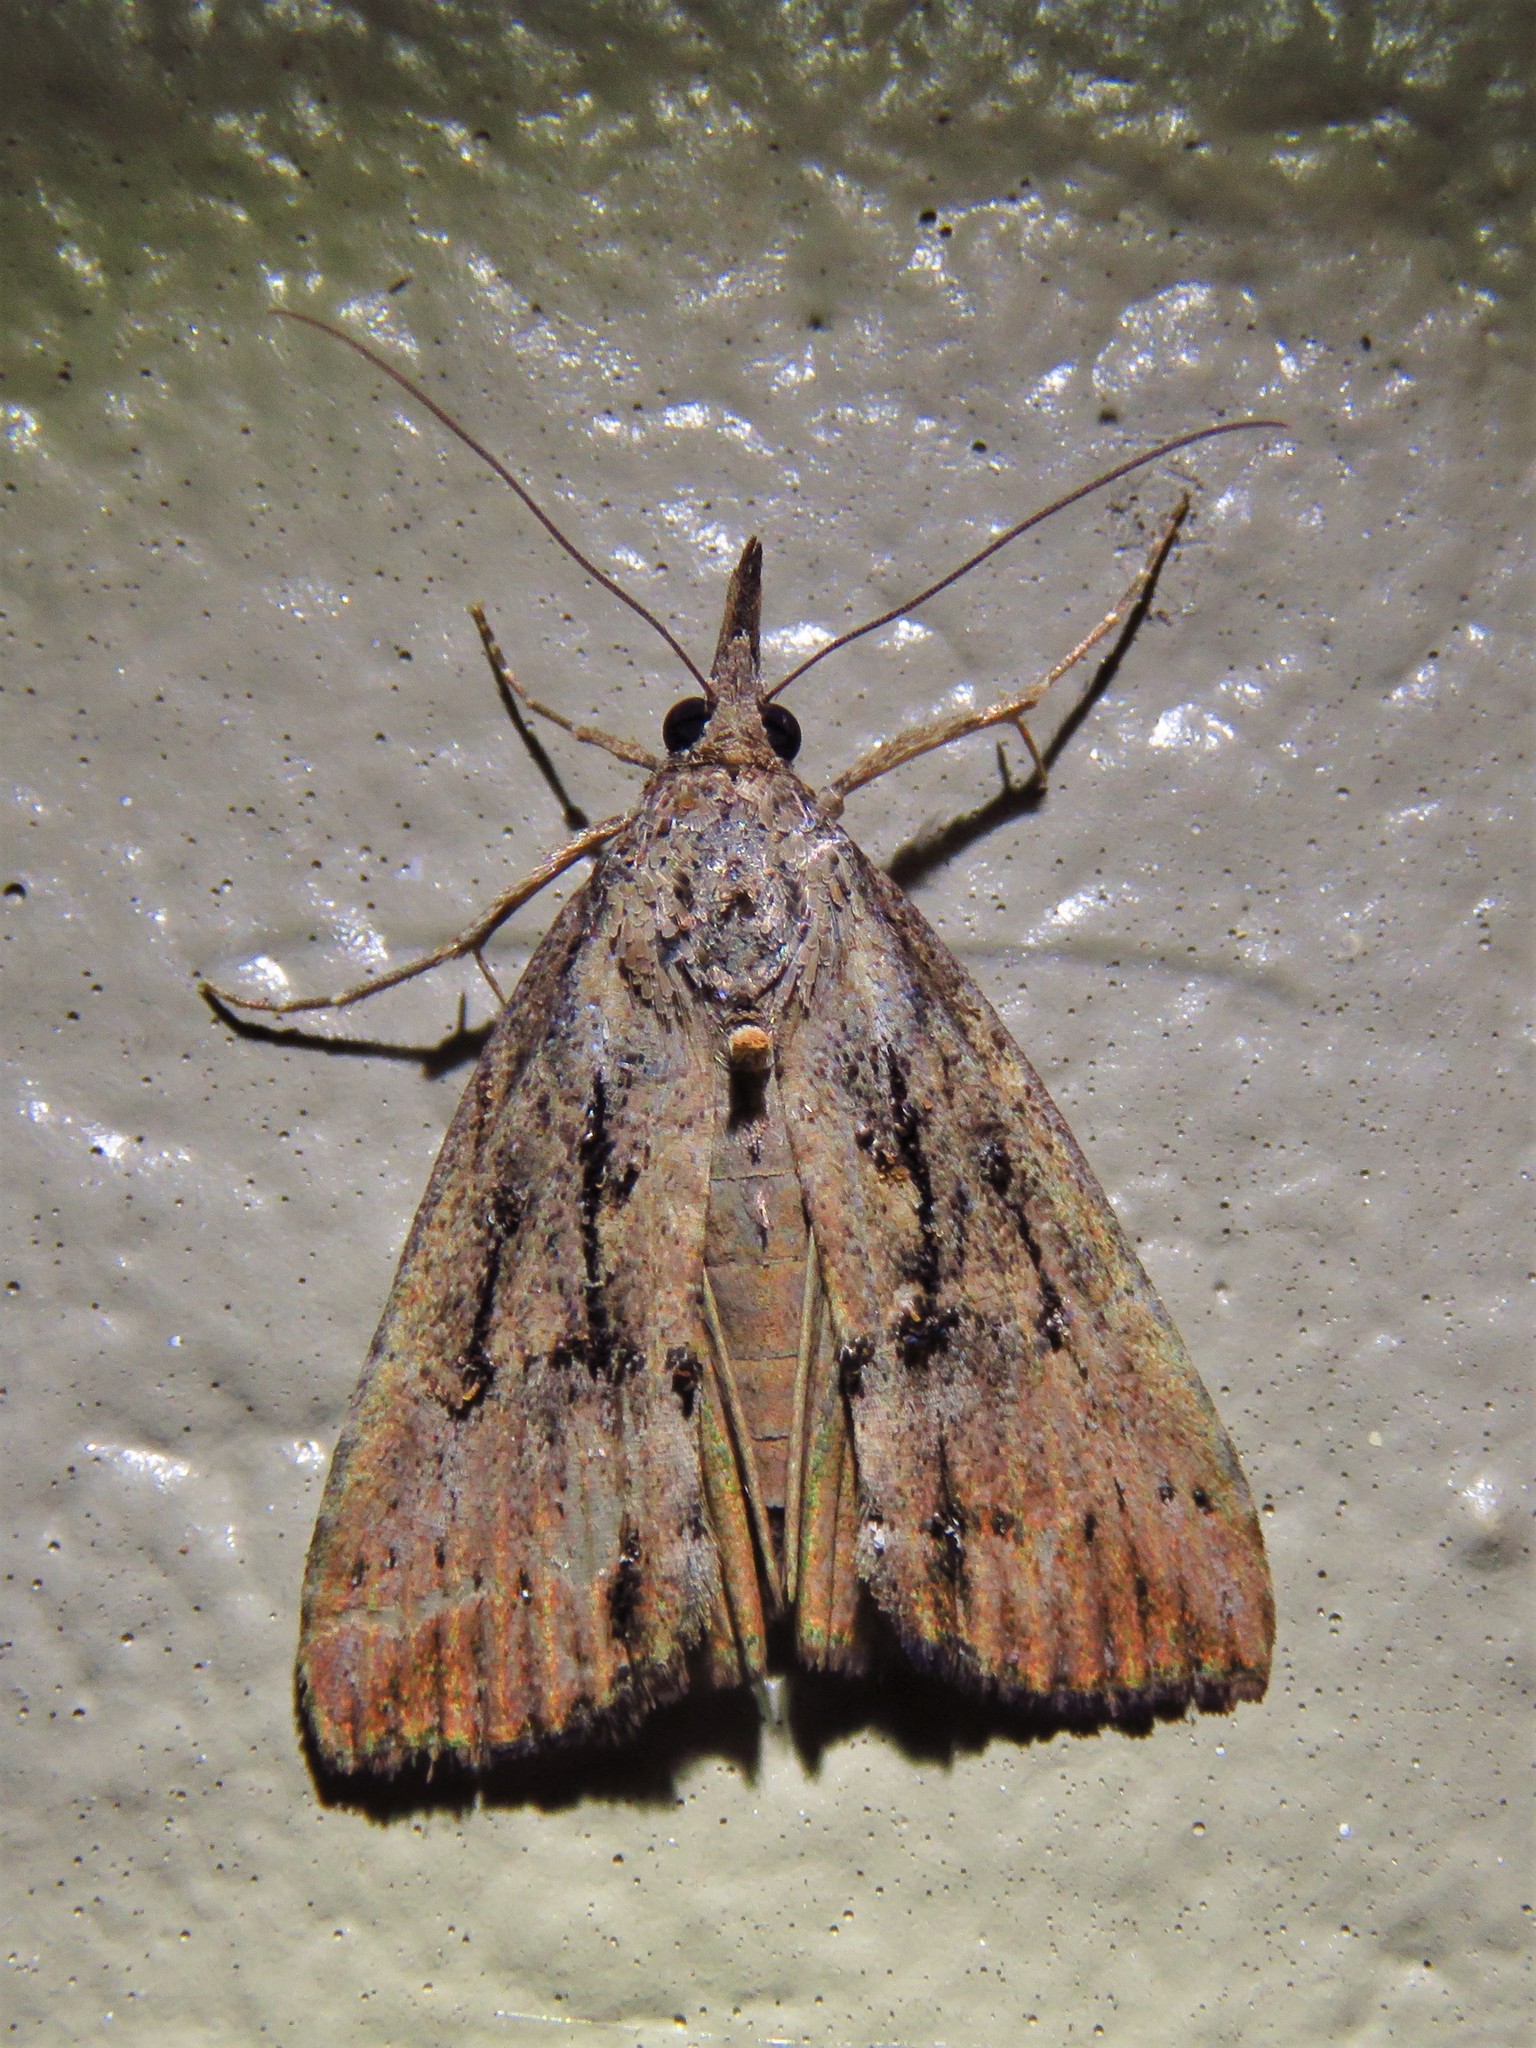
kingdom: Animalia
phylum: Arthropoda
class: Insecta
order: Lepidoptera
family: Erebidae
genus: Hypena
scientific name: Hypena scabra
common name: Green cloverworm
